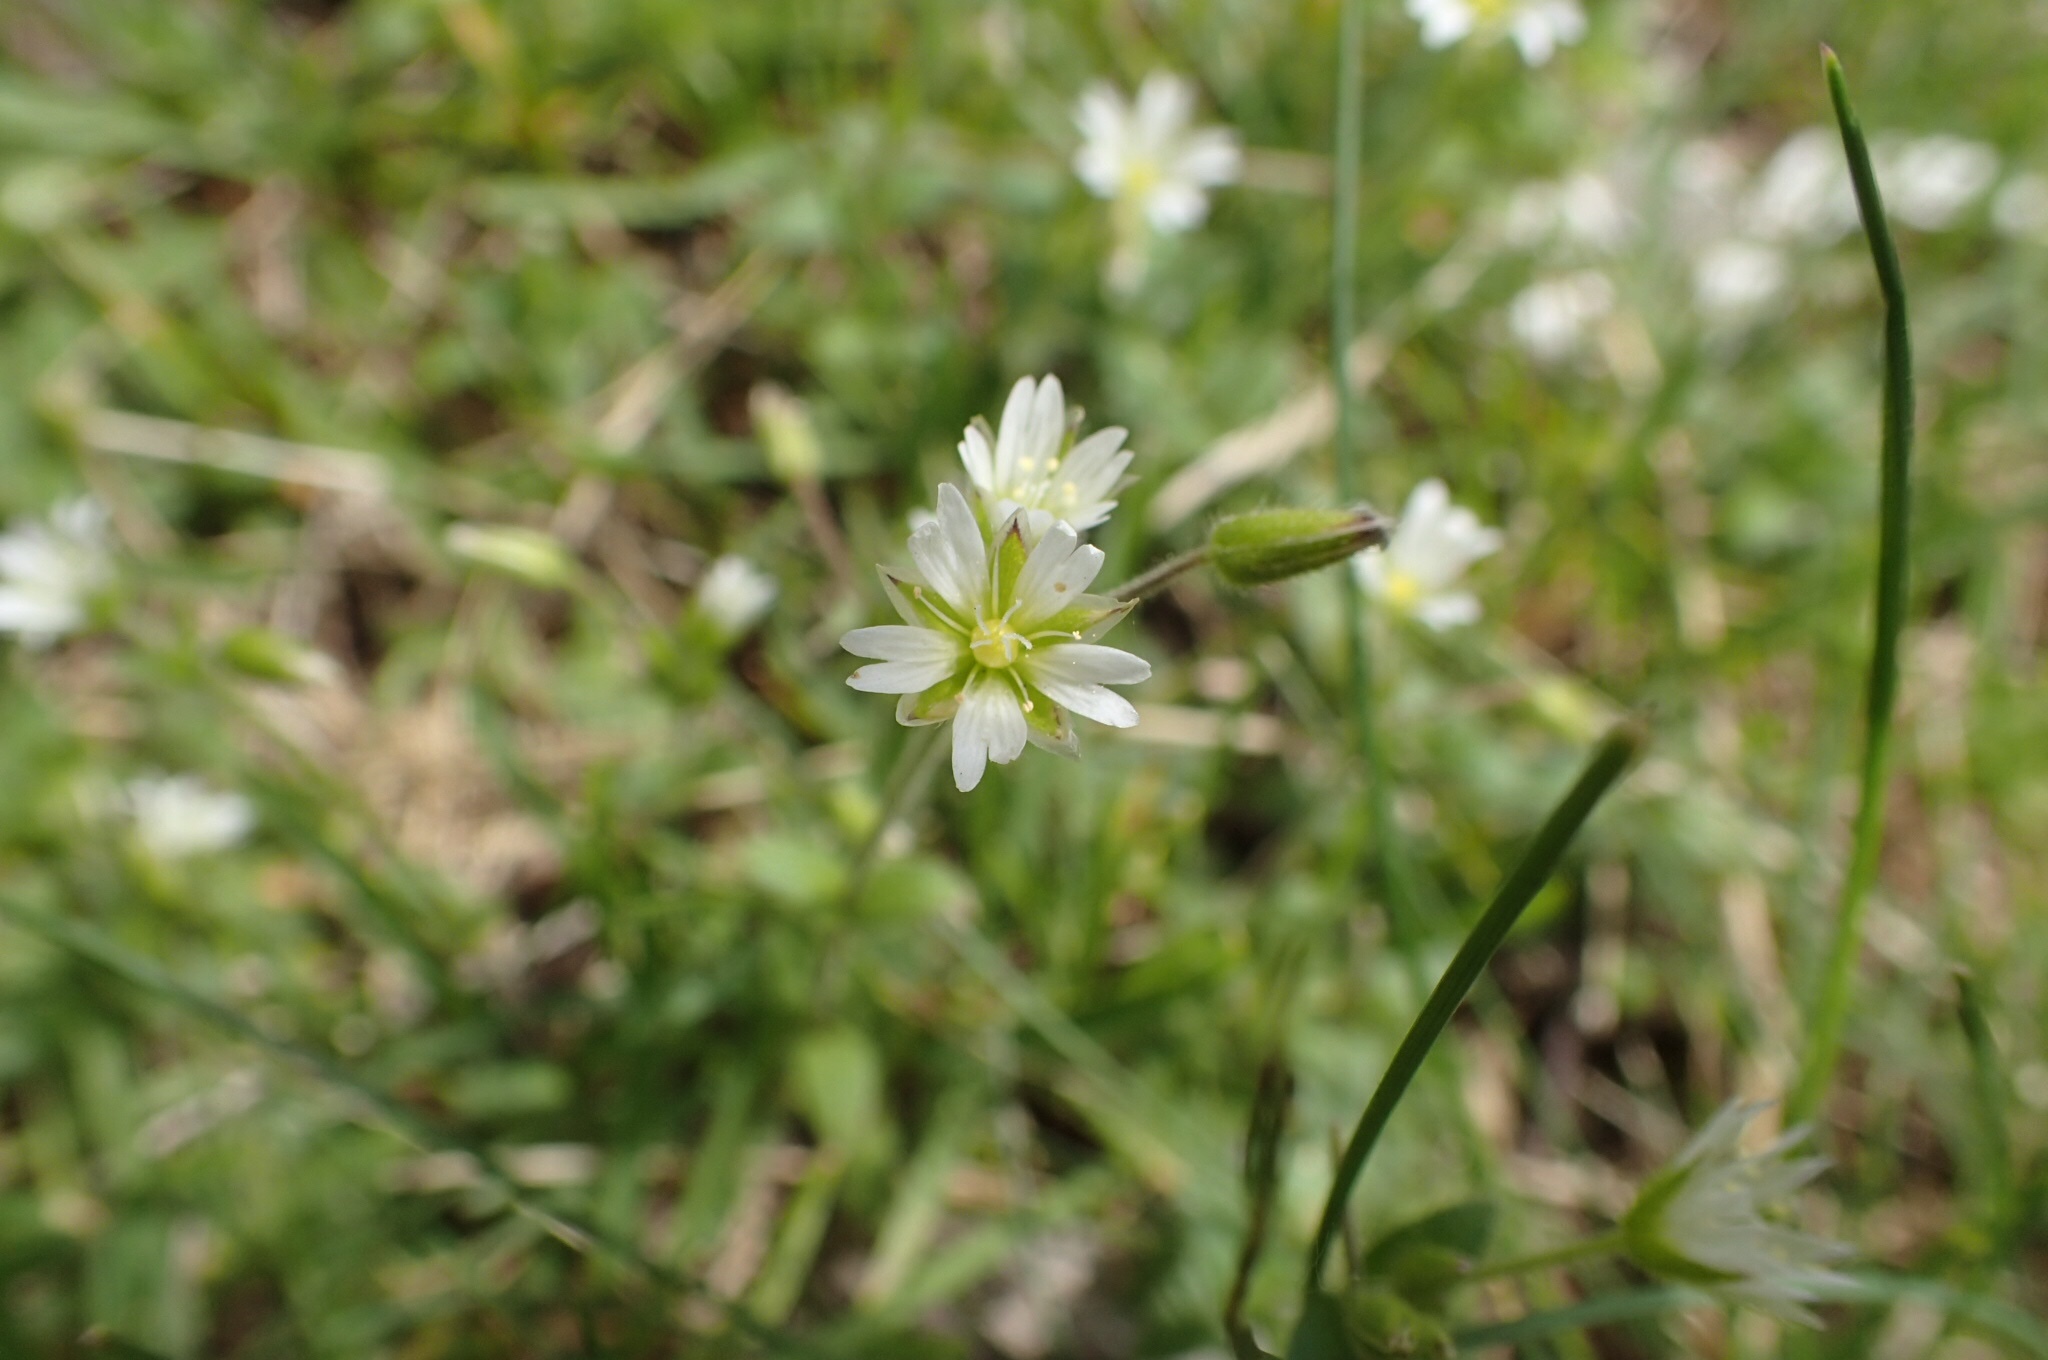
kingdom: Plantae
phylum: Tracheophyta
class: Magnoliopsida
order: Caryophyllales
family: Caryophyllaceae
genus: Cerastium
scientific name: Cerastium fontanum
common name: Common mouse-ear
